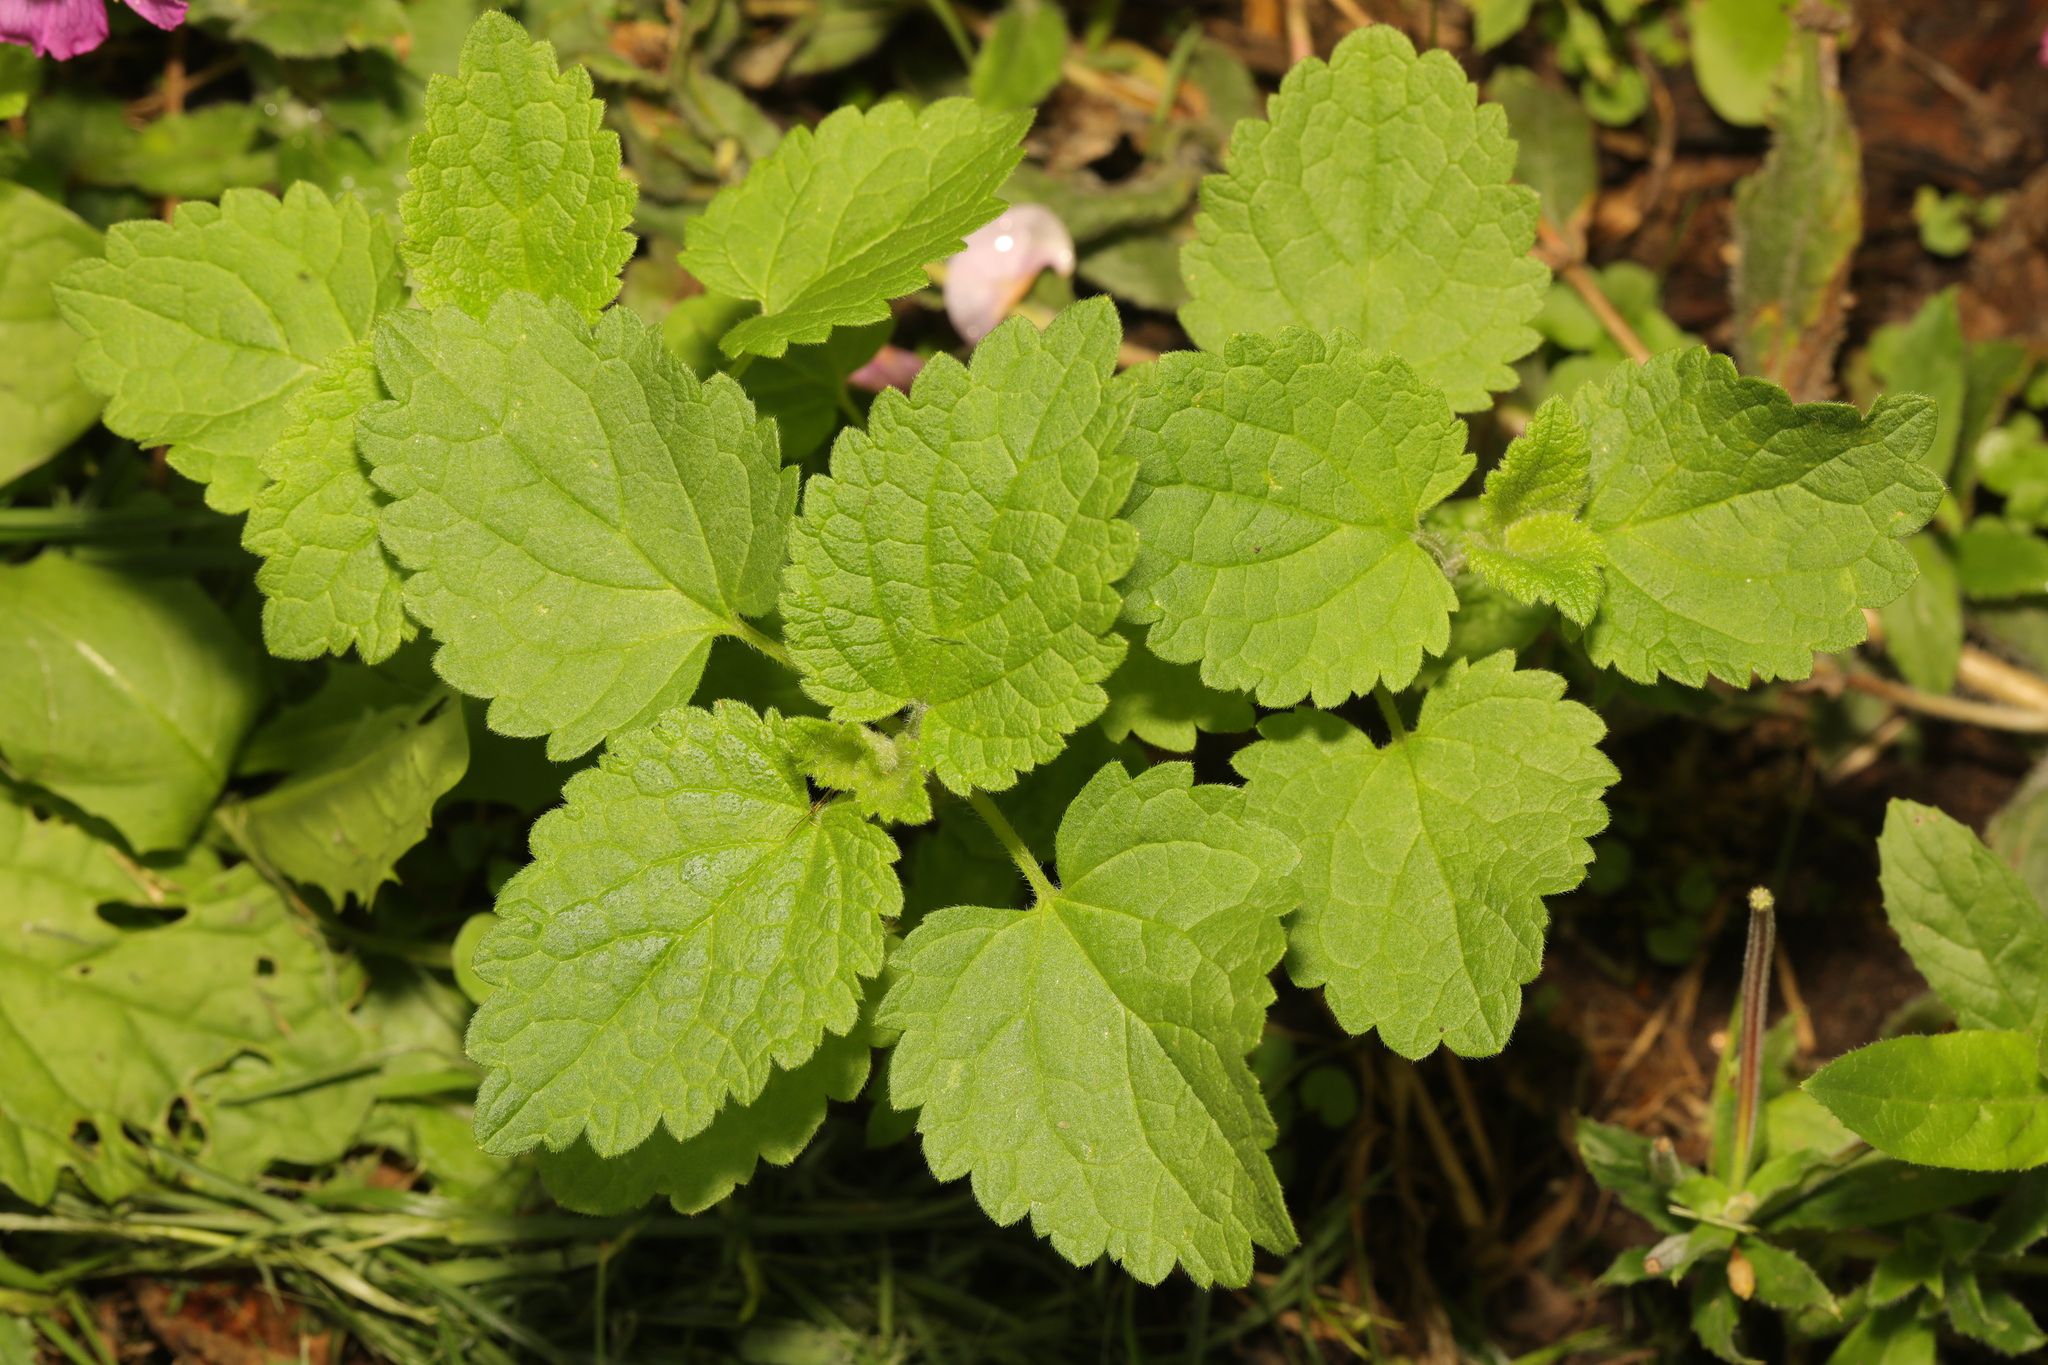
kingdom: Plantae
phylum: Tracheophyta
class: Magnoliopsida
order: Lamiales
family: Lamiaceae
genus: Melissa
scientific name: Melissa officinalis
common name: Balm
